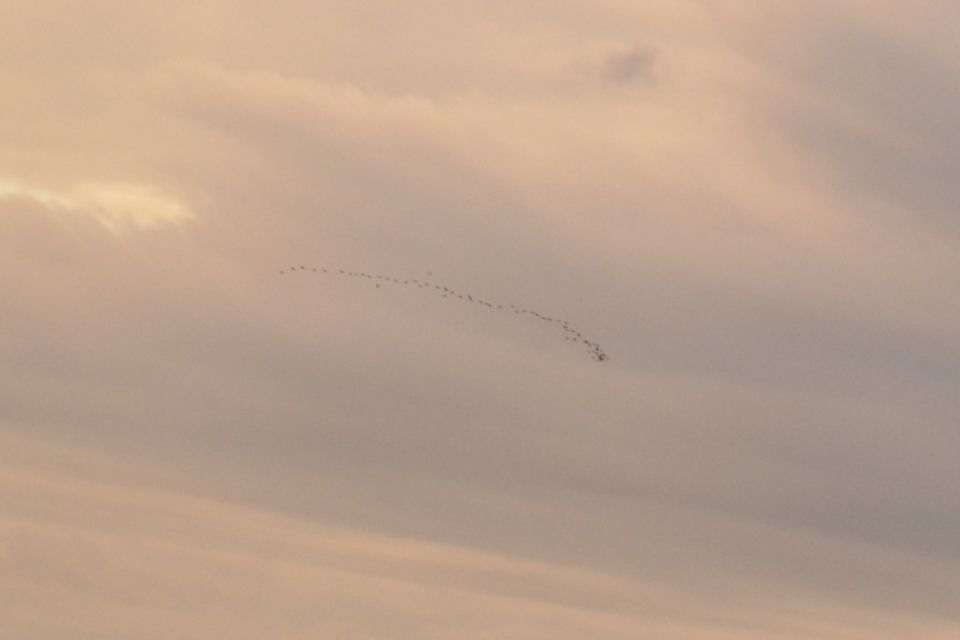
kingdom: Animalia
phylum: Chordata
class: Aves
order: Pelecaniformes
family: Threskiornithidae
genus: Plegadis
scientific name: Plegadis falcinellus
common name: Glossy ibis
